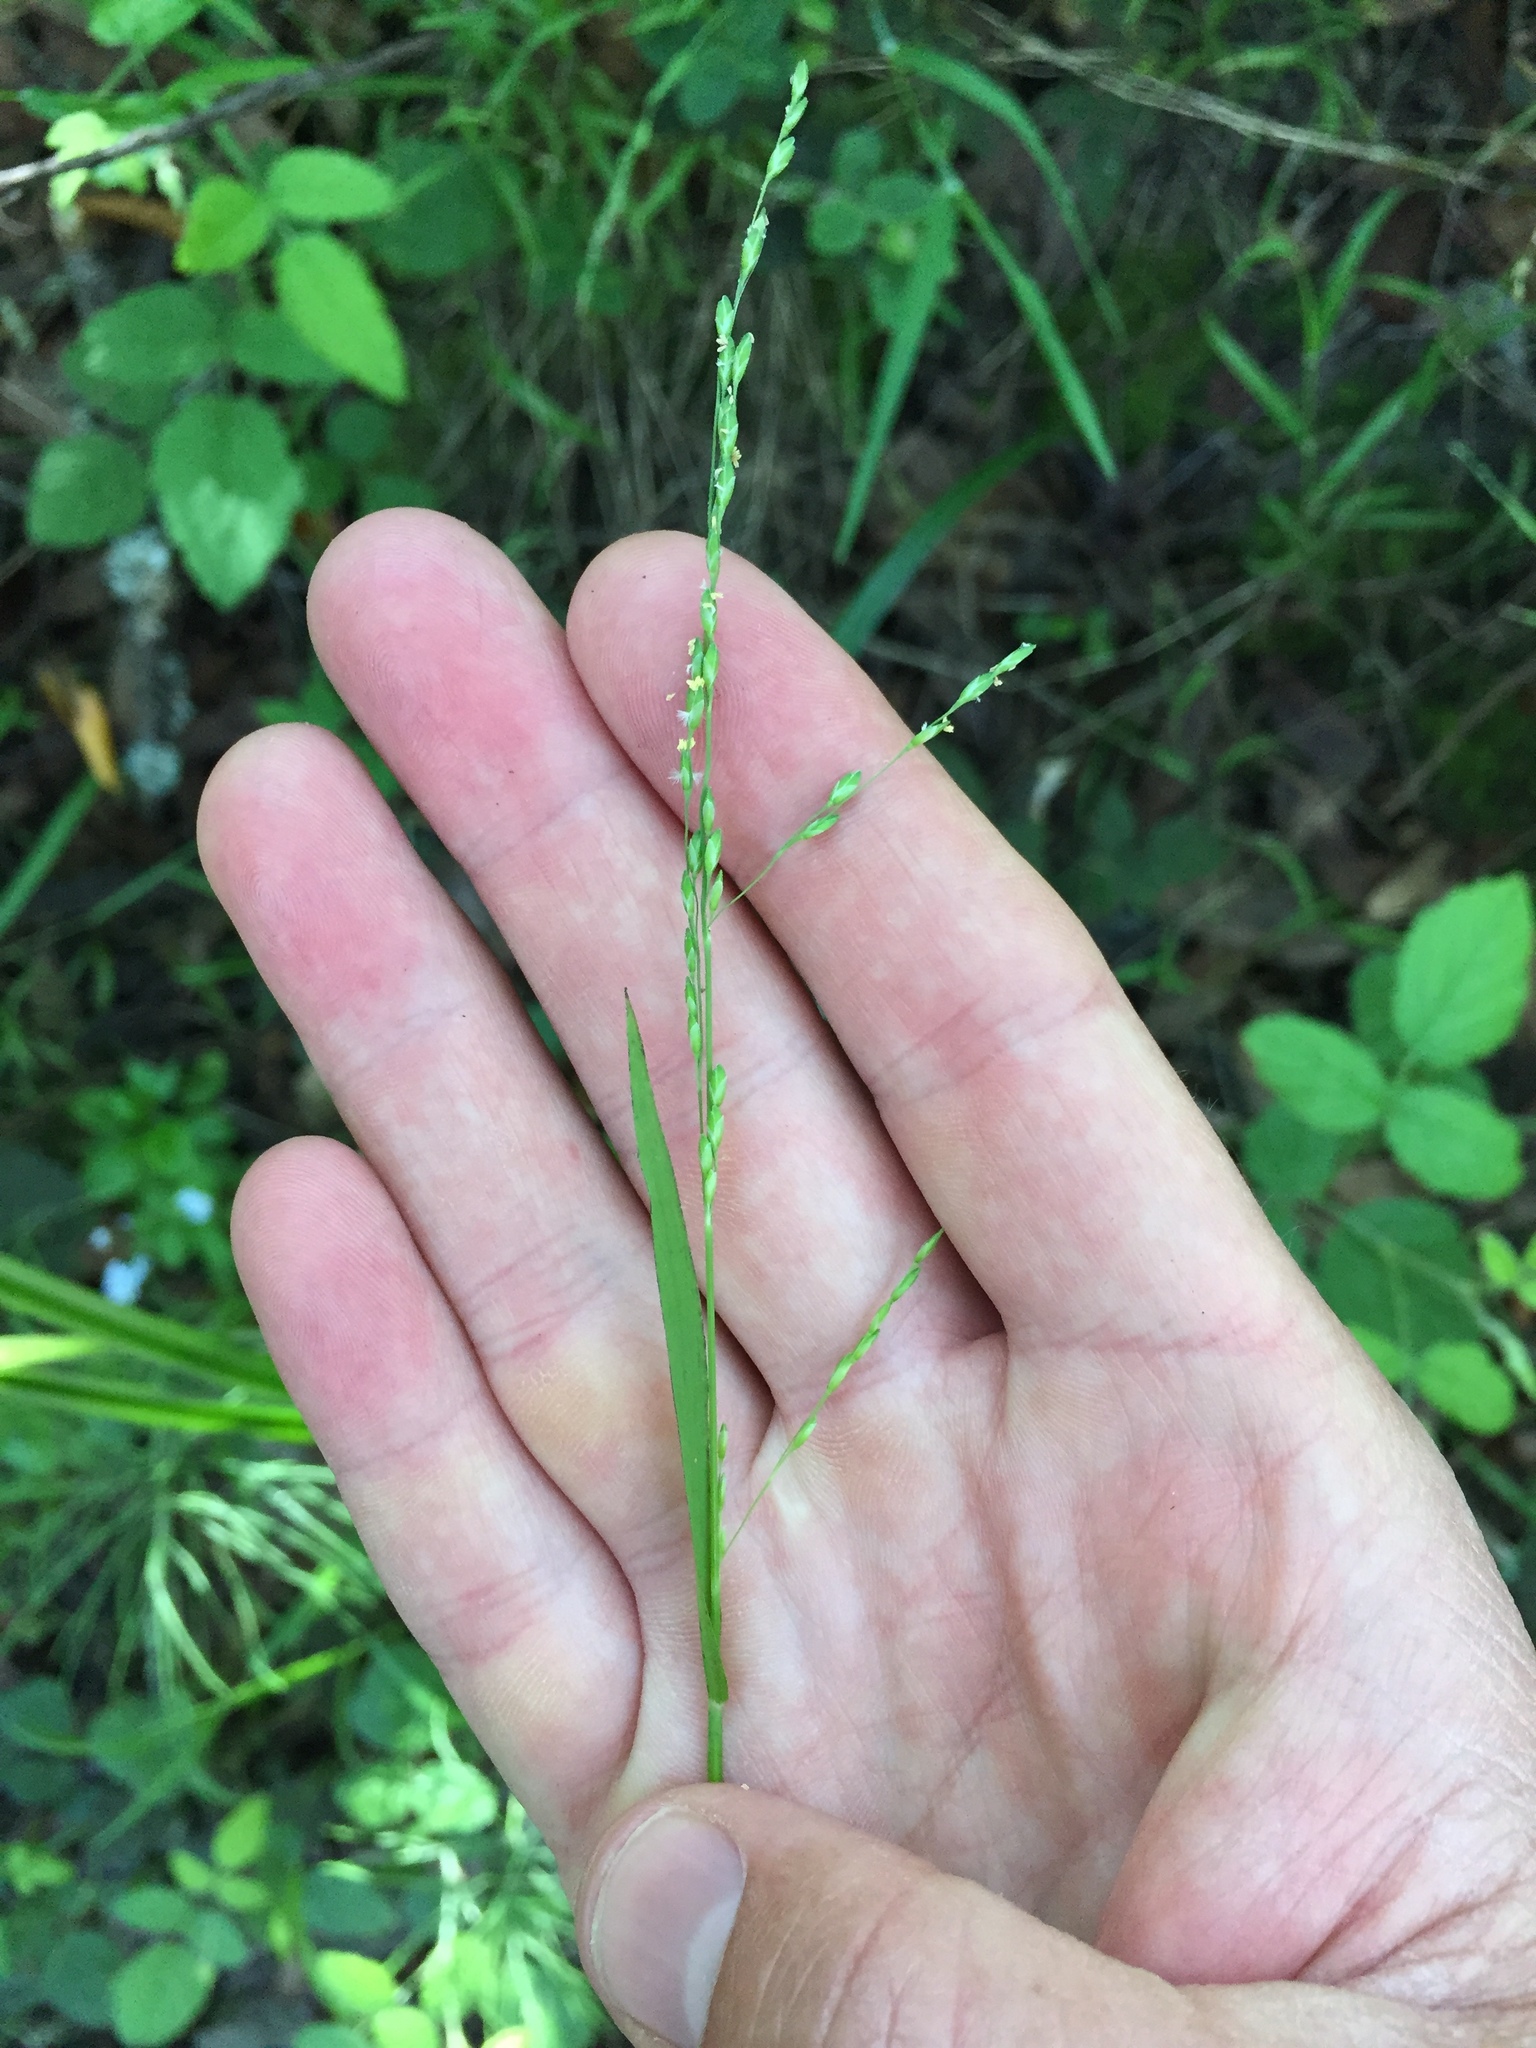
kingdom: Plantae
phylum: Tracheophyta
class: Liliopsida
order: Poales
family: Poaceae
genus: Ehrharta
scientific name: Ehrharta erecta
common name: Panic veldtgrass
